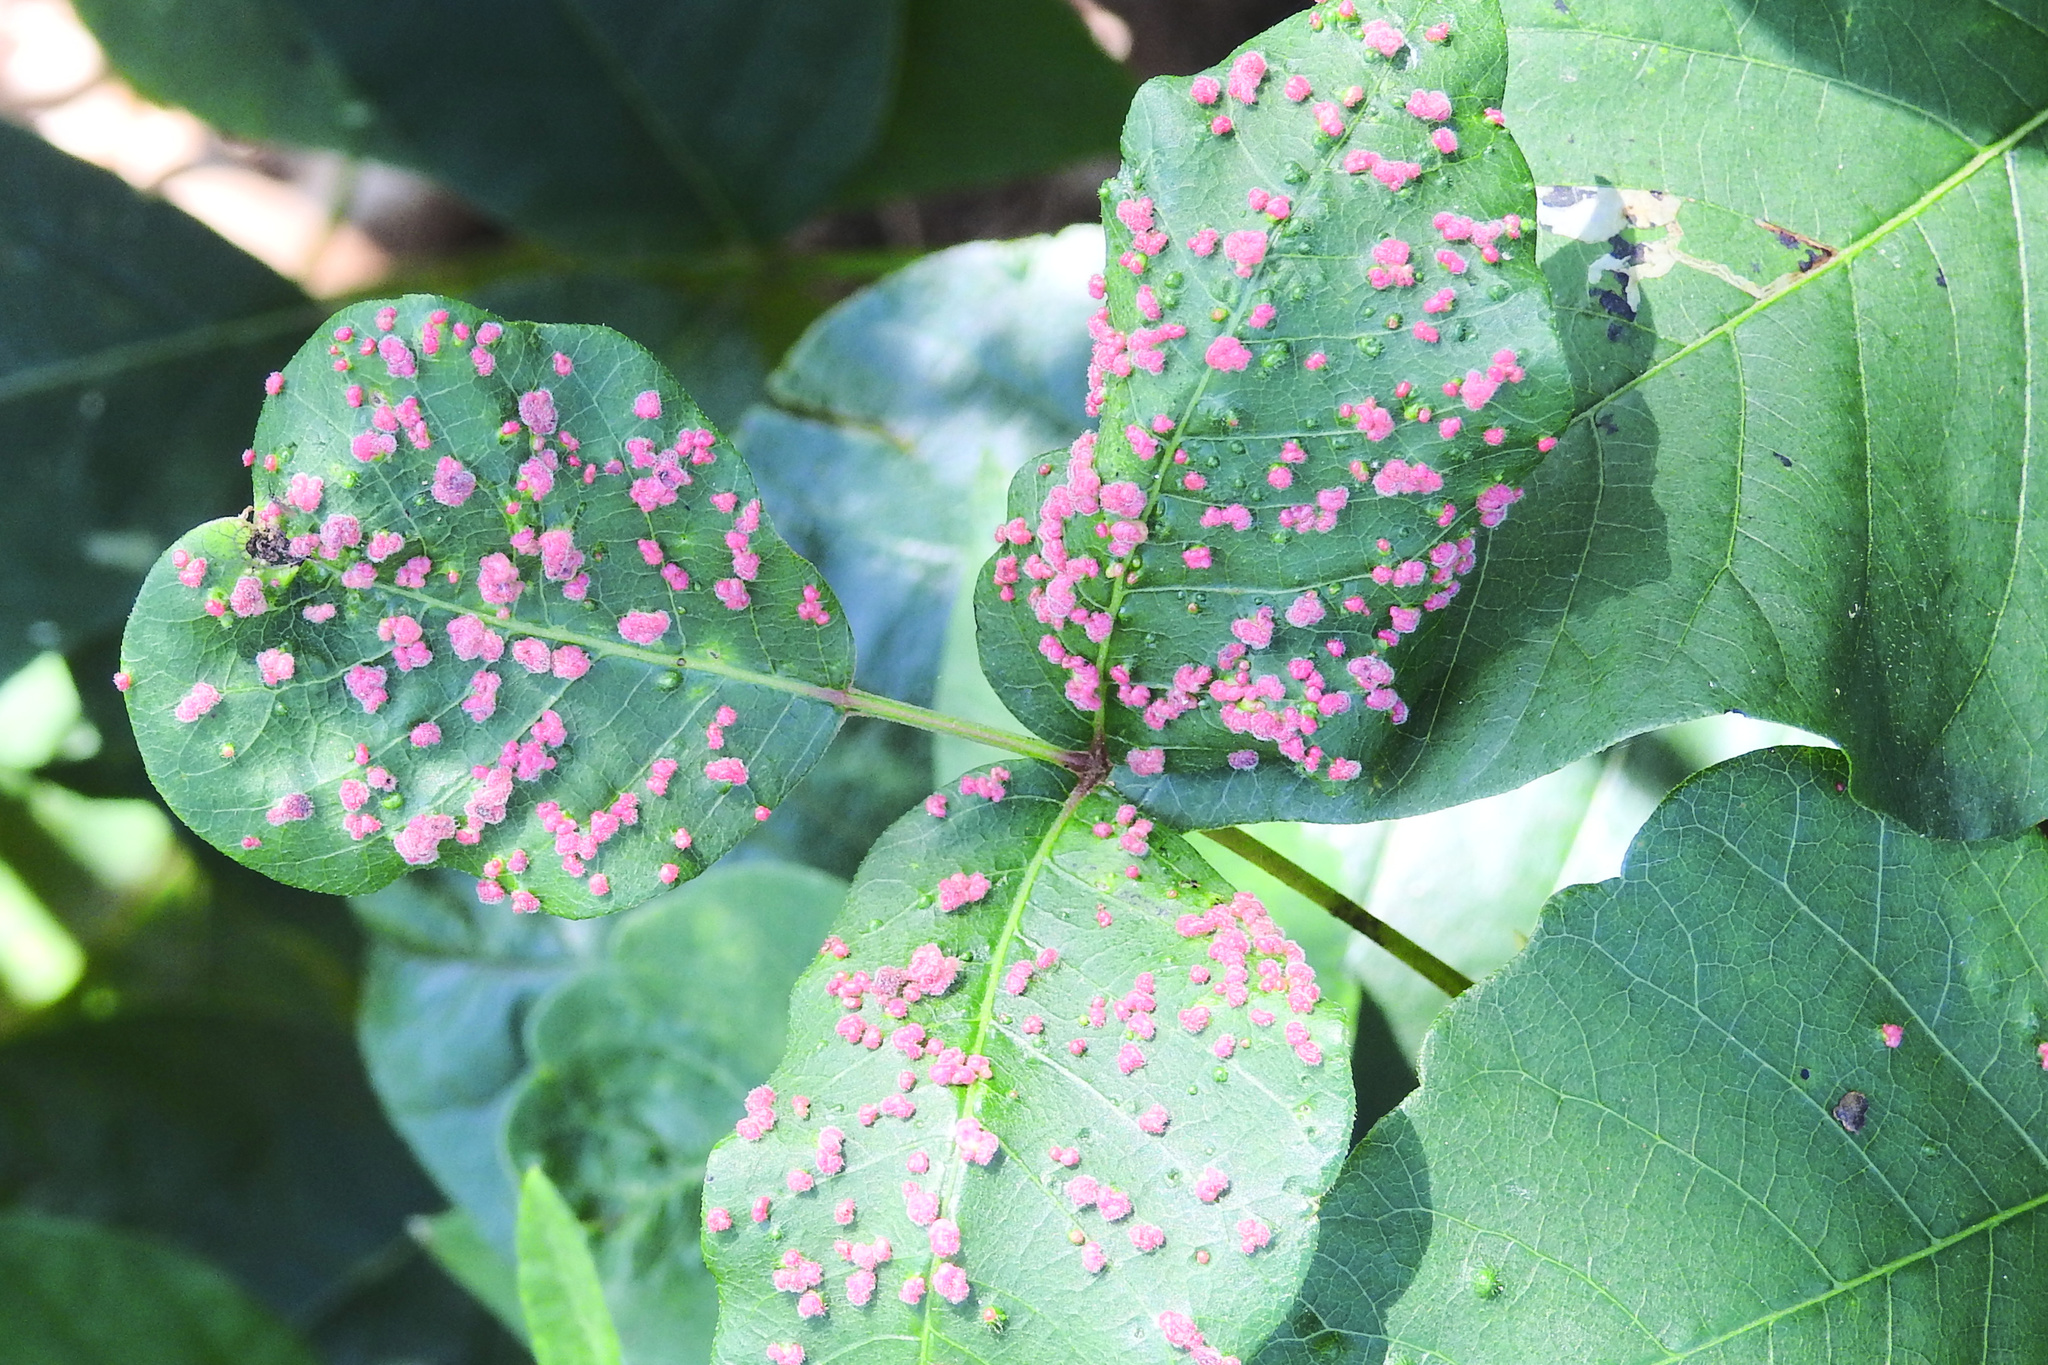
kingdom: Animalia
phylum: Arthropoda
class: Arachnida
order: Trombidiformes
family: Eriophyidae
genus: Aculops
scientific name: Aculops
